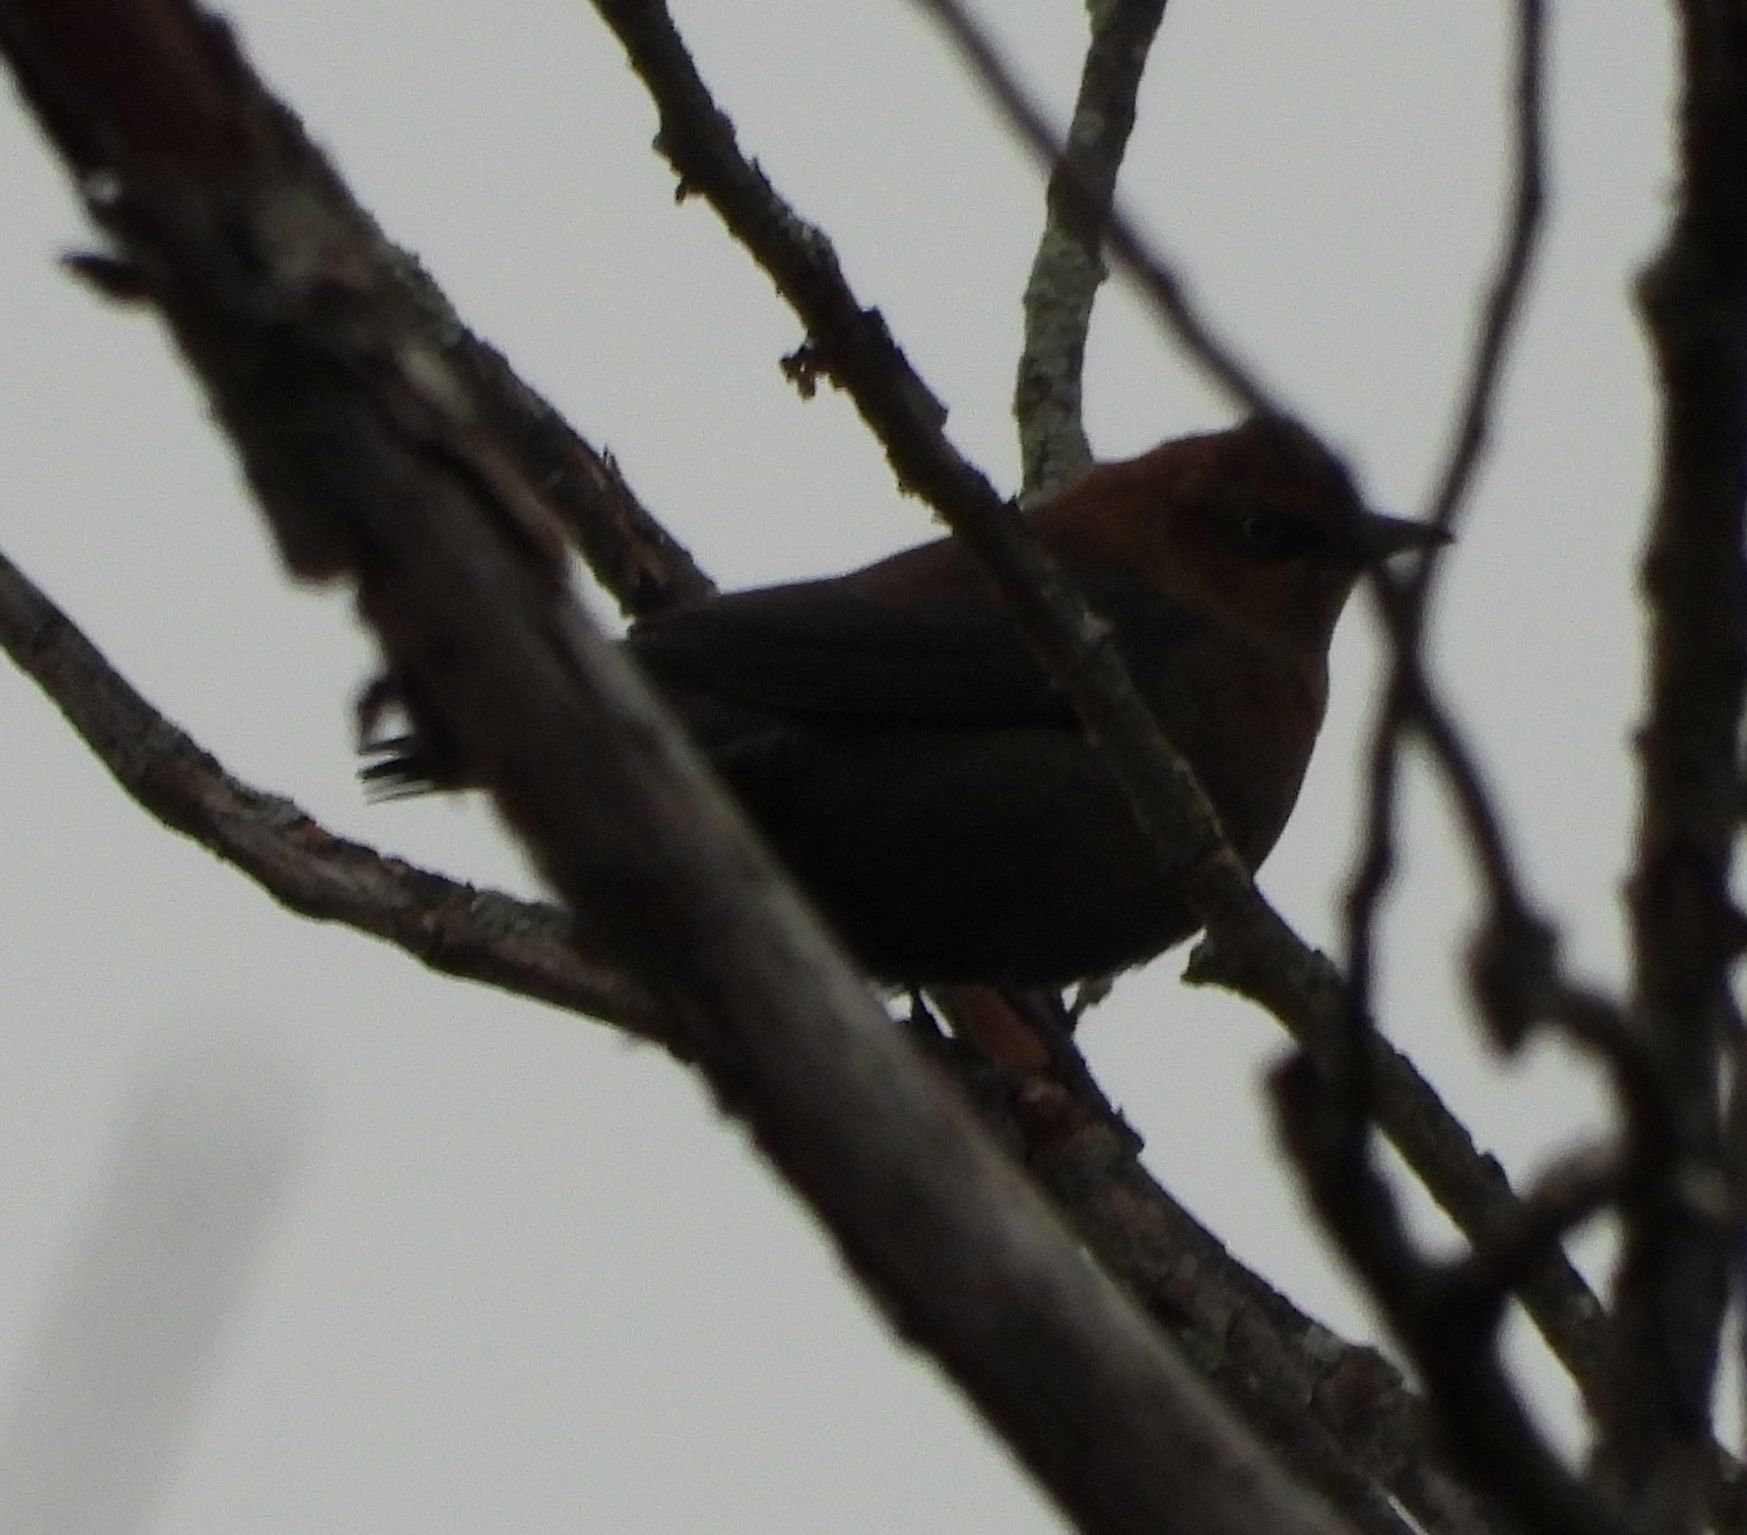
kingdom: Animalia
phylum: Chordata
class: Aves
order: Passeriformes
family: Icteridae
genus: Euphagus
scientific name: Euphagus carolinus
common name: Rusty blackbird
